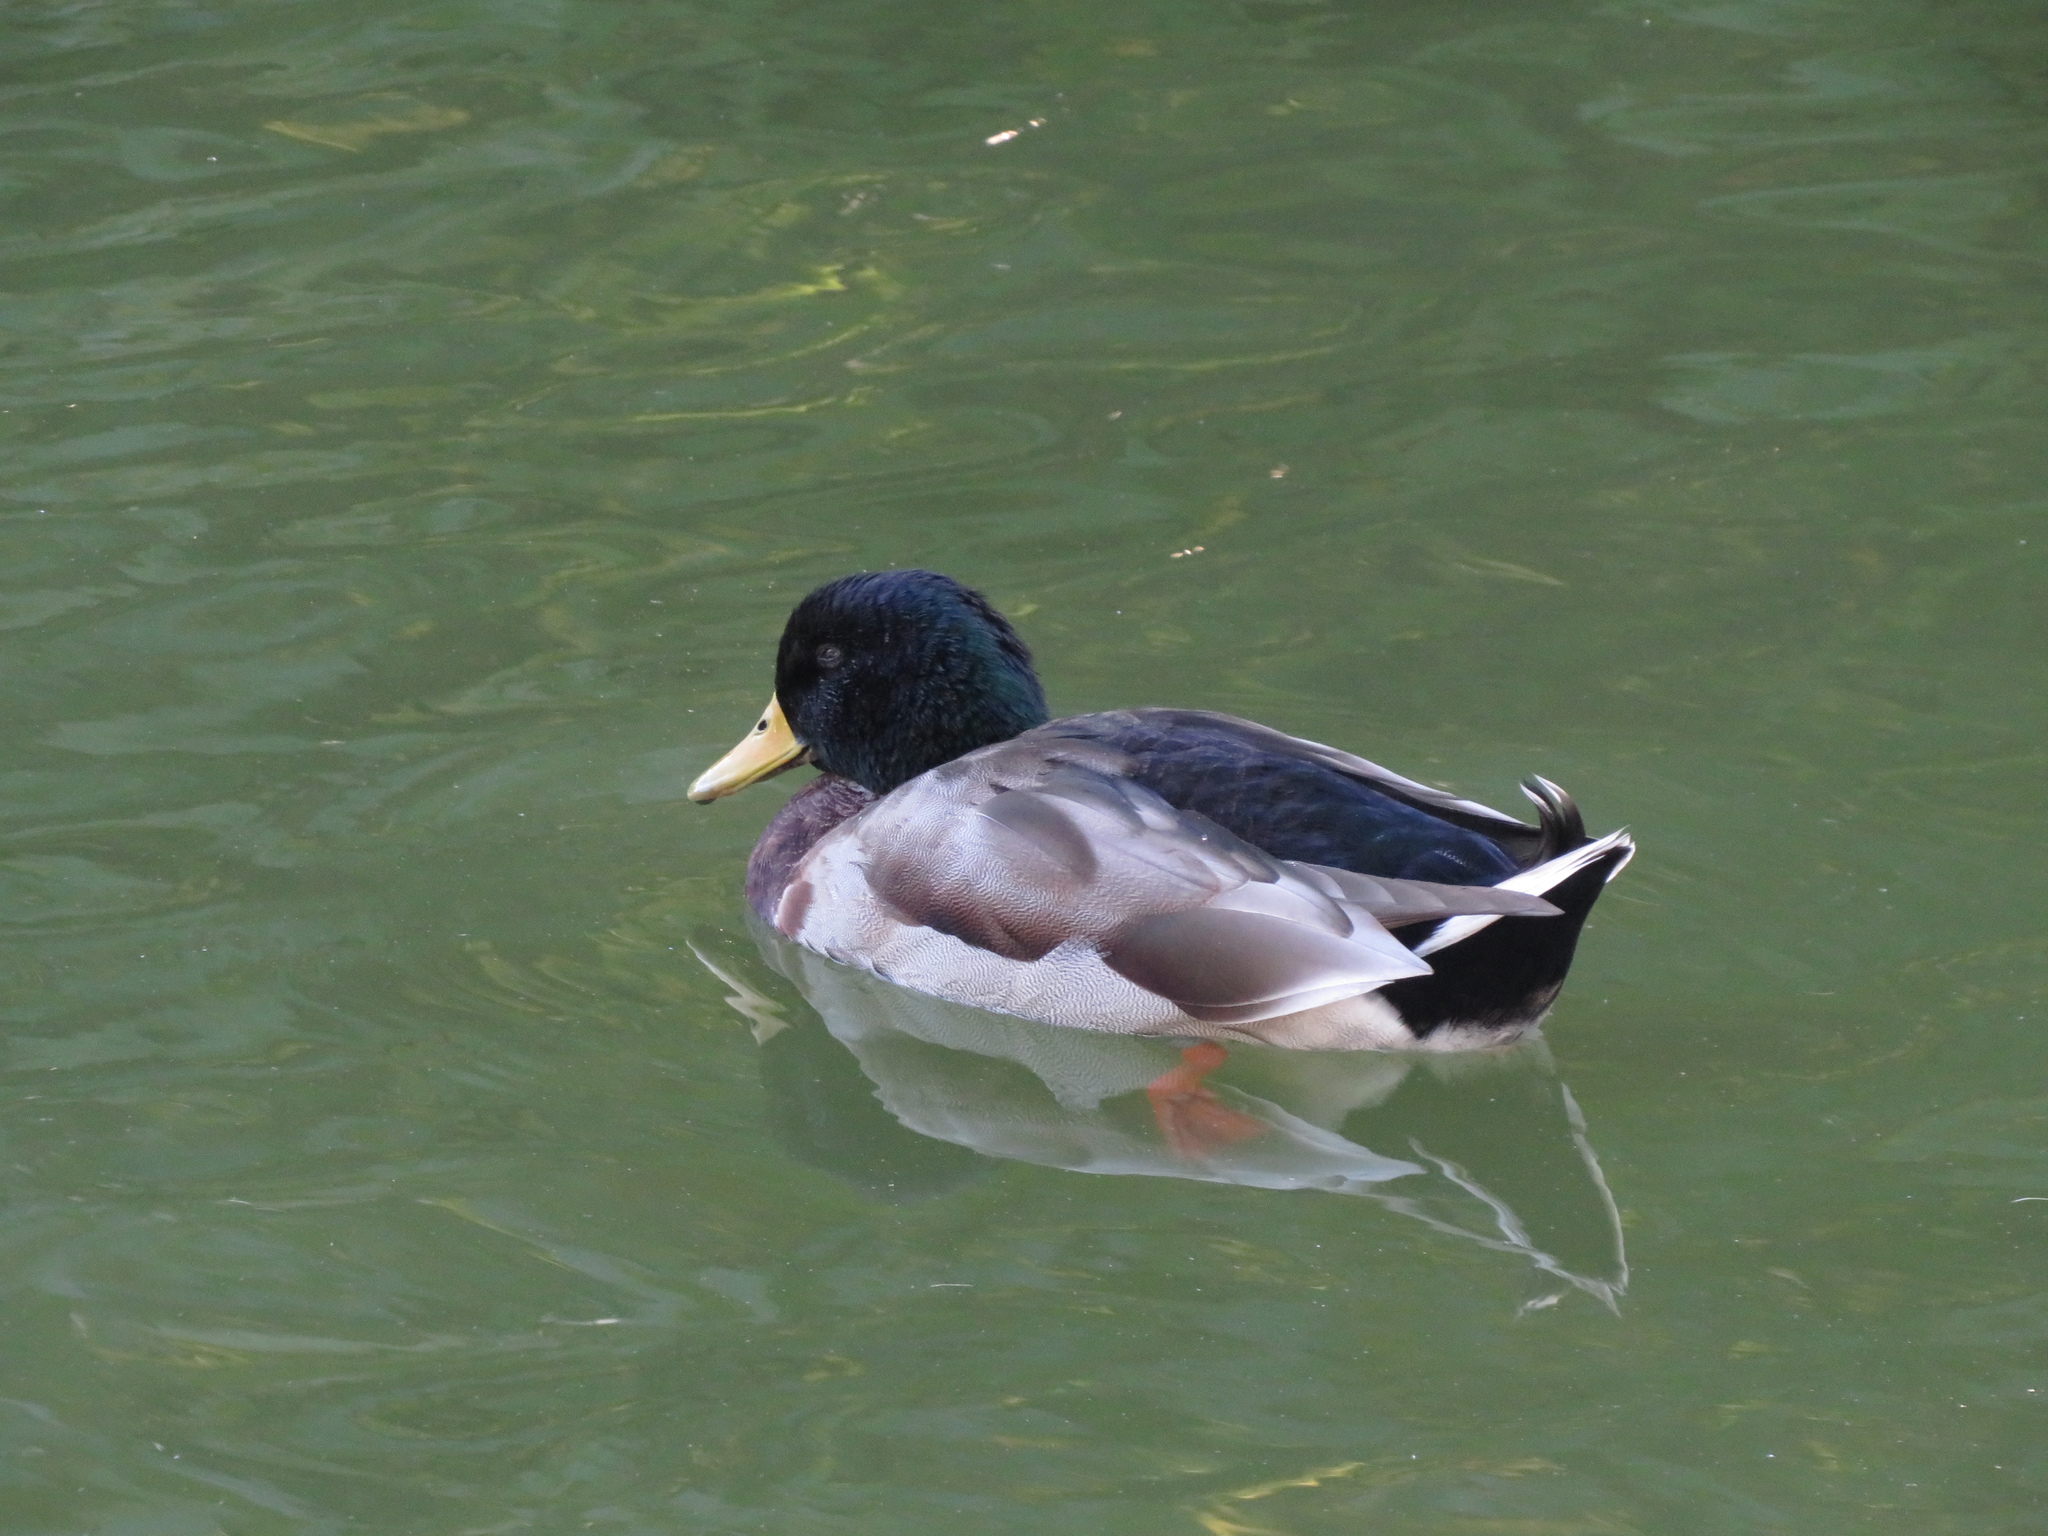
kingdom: Animalia
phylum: Chordata
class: Aves
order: Anseriformes
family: Anatidae
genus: Anas
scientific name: Anas platyrhynchos
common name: Mallard
